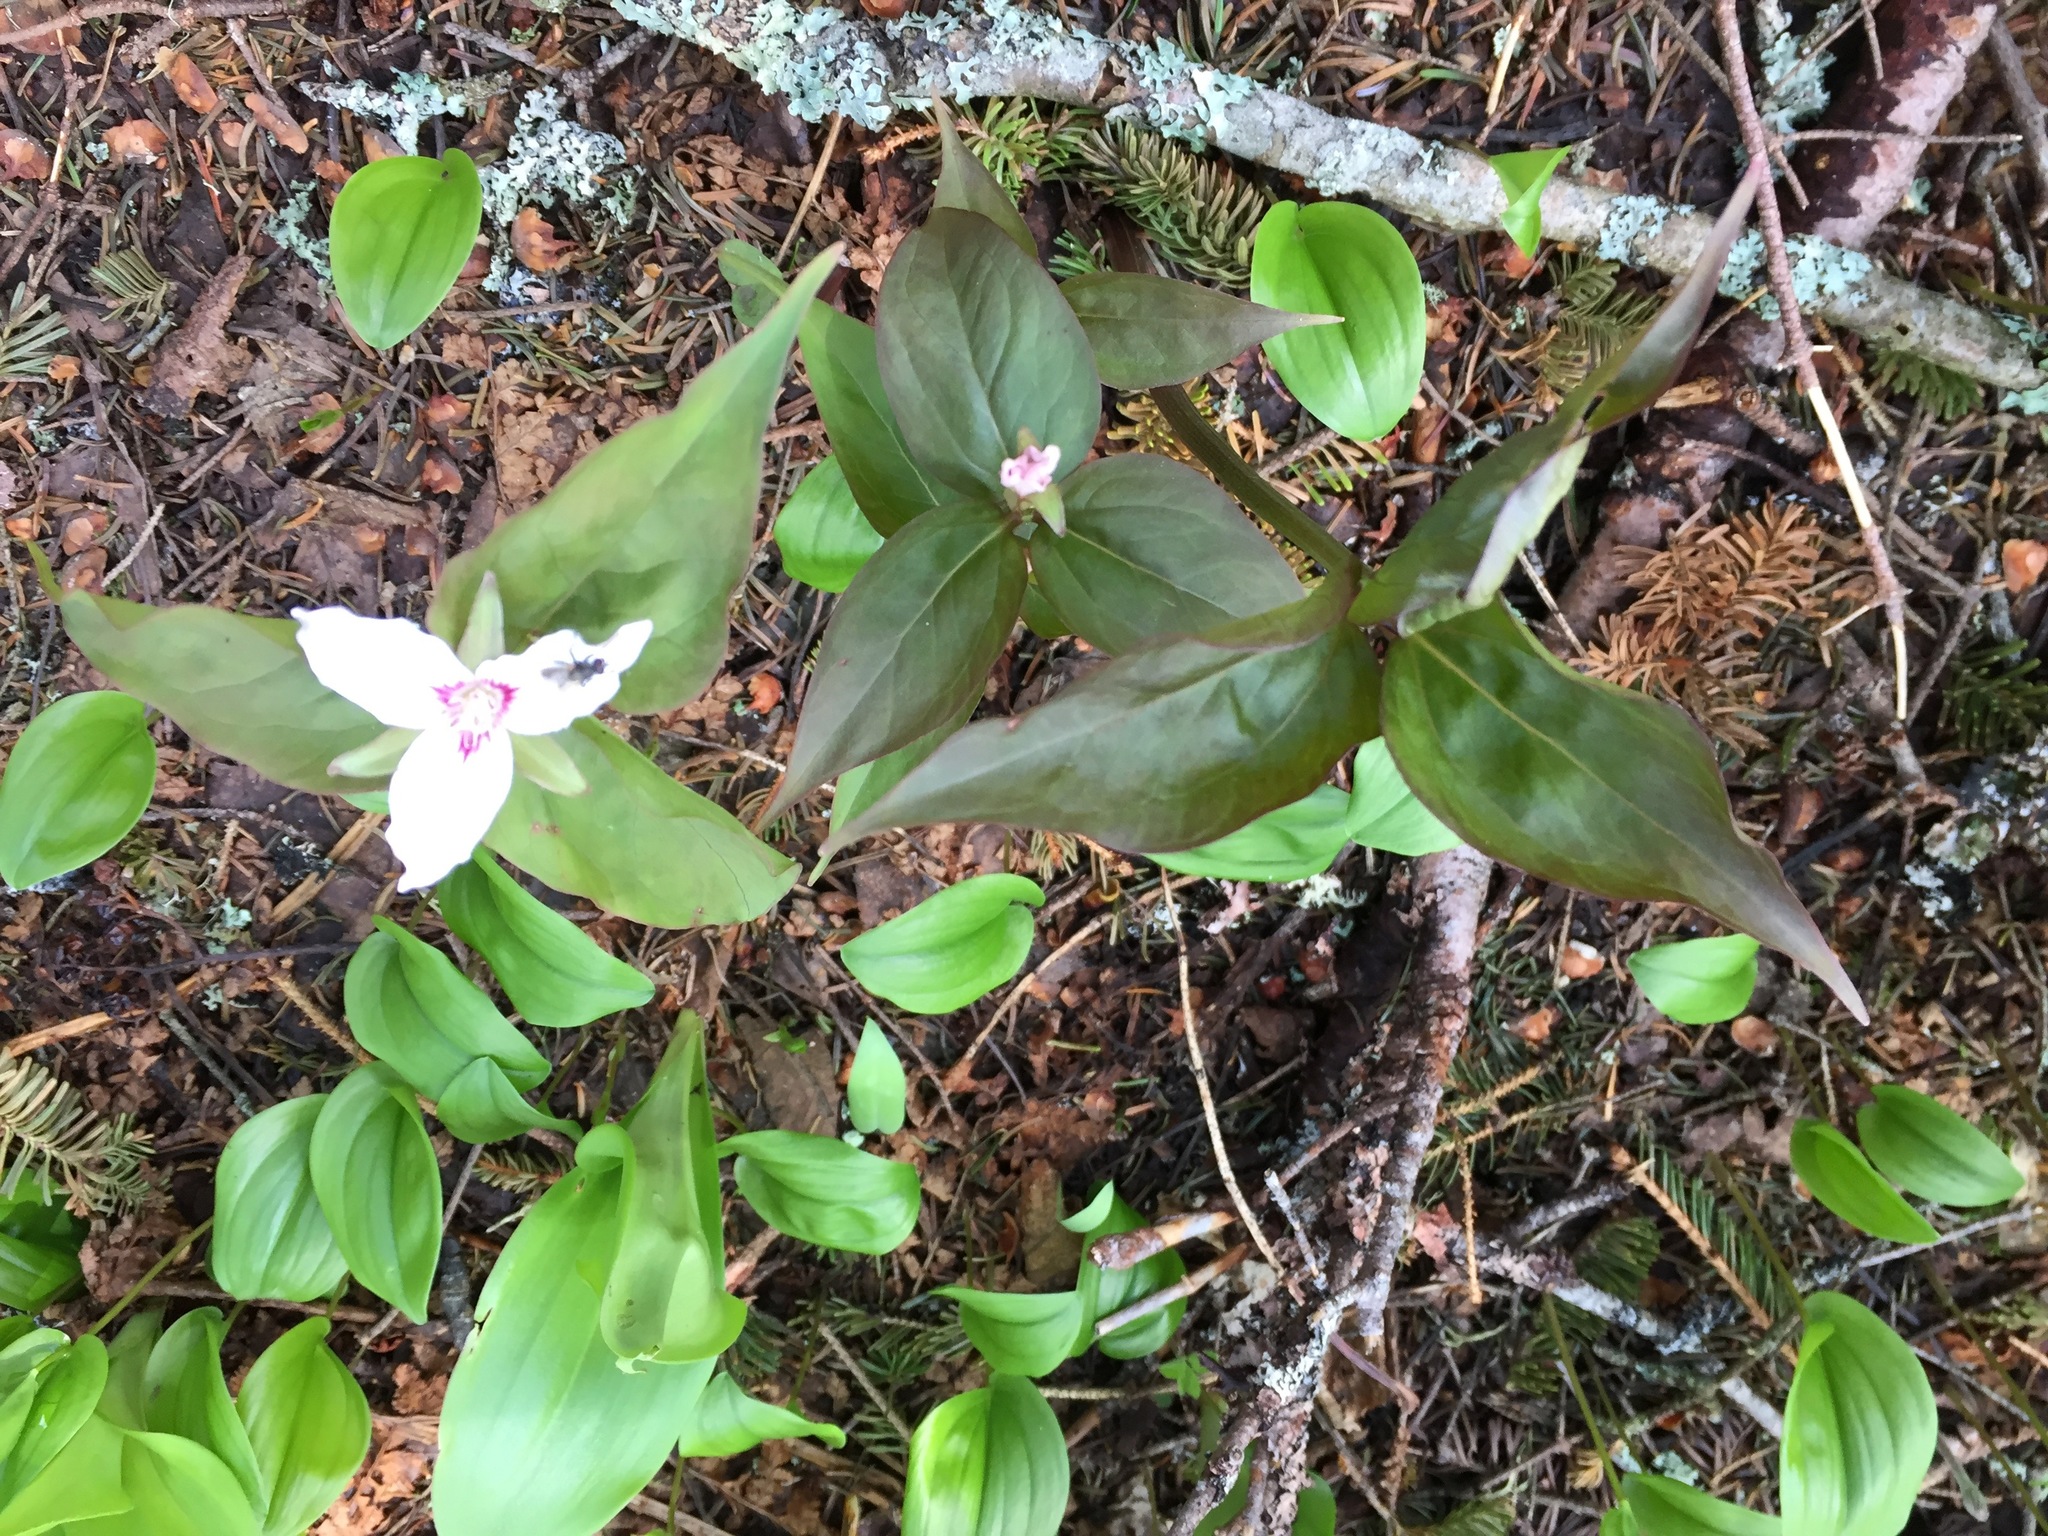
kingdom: Plantae
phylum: Tracheophyta
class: Liliopsida
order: Liliales
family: Melanthiaceae
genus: Trillium
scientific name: Trillium undulatum
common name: Paint trillium
